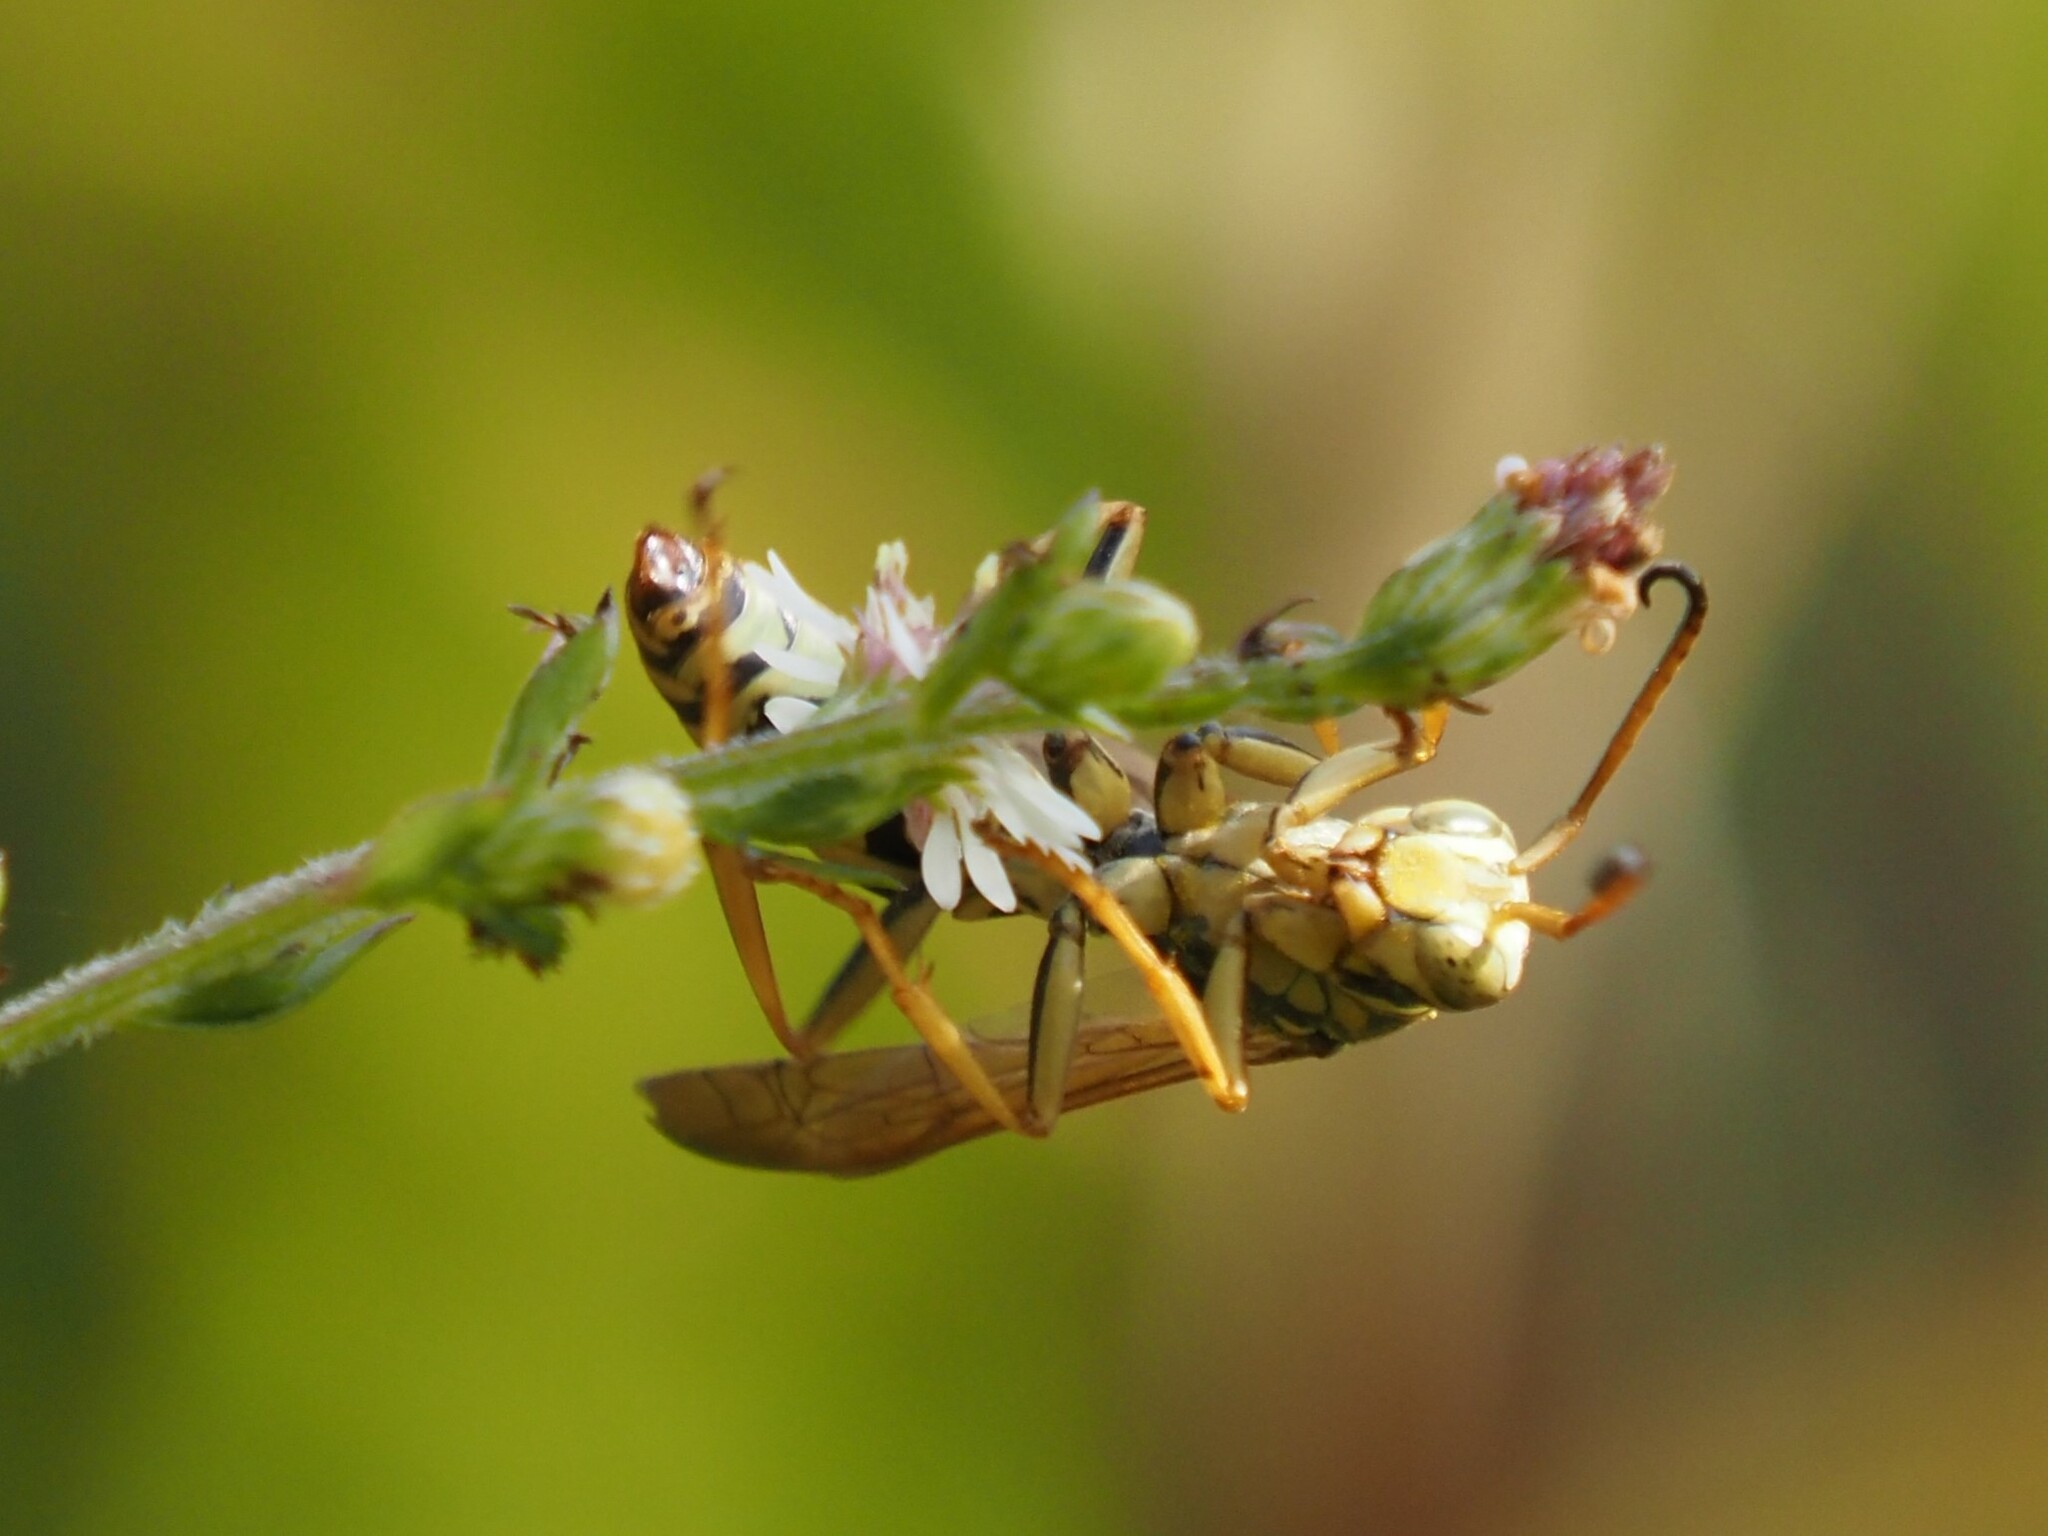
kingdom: Animalia
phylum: Arthropoda
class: Insecta
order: Hymenoptera
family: Eumenidae
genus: Polistes
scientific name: Polistes fuscatus
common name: Dark paper wasp
